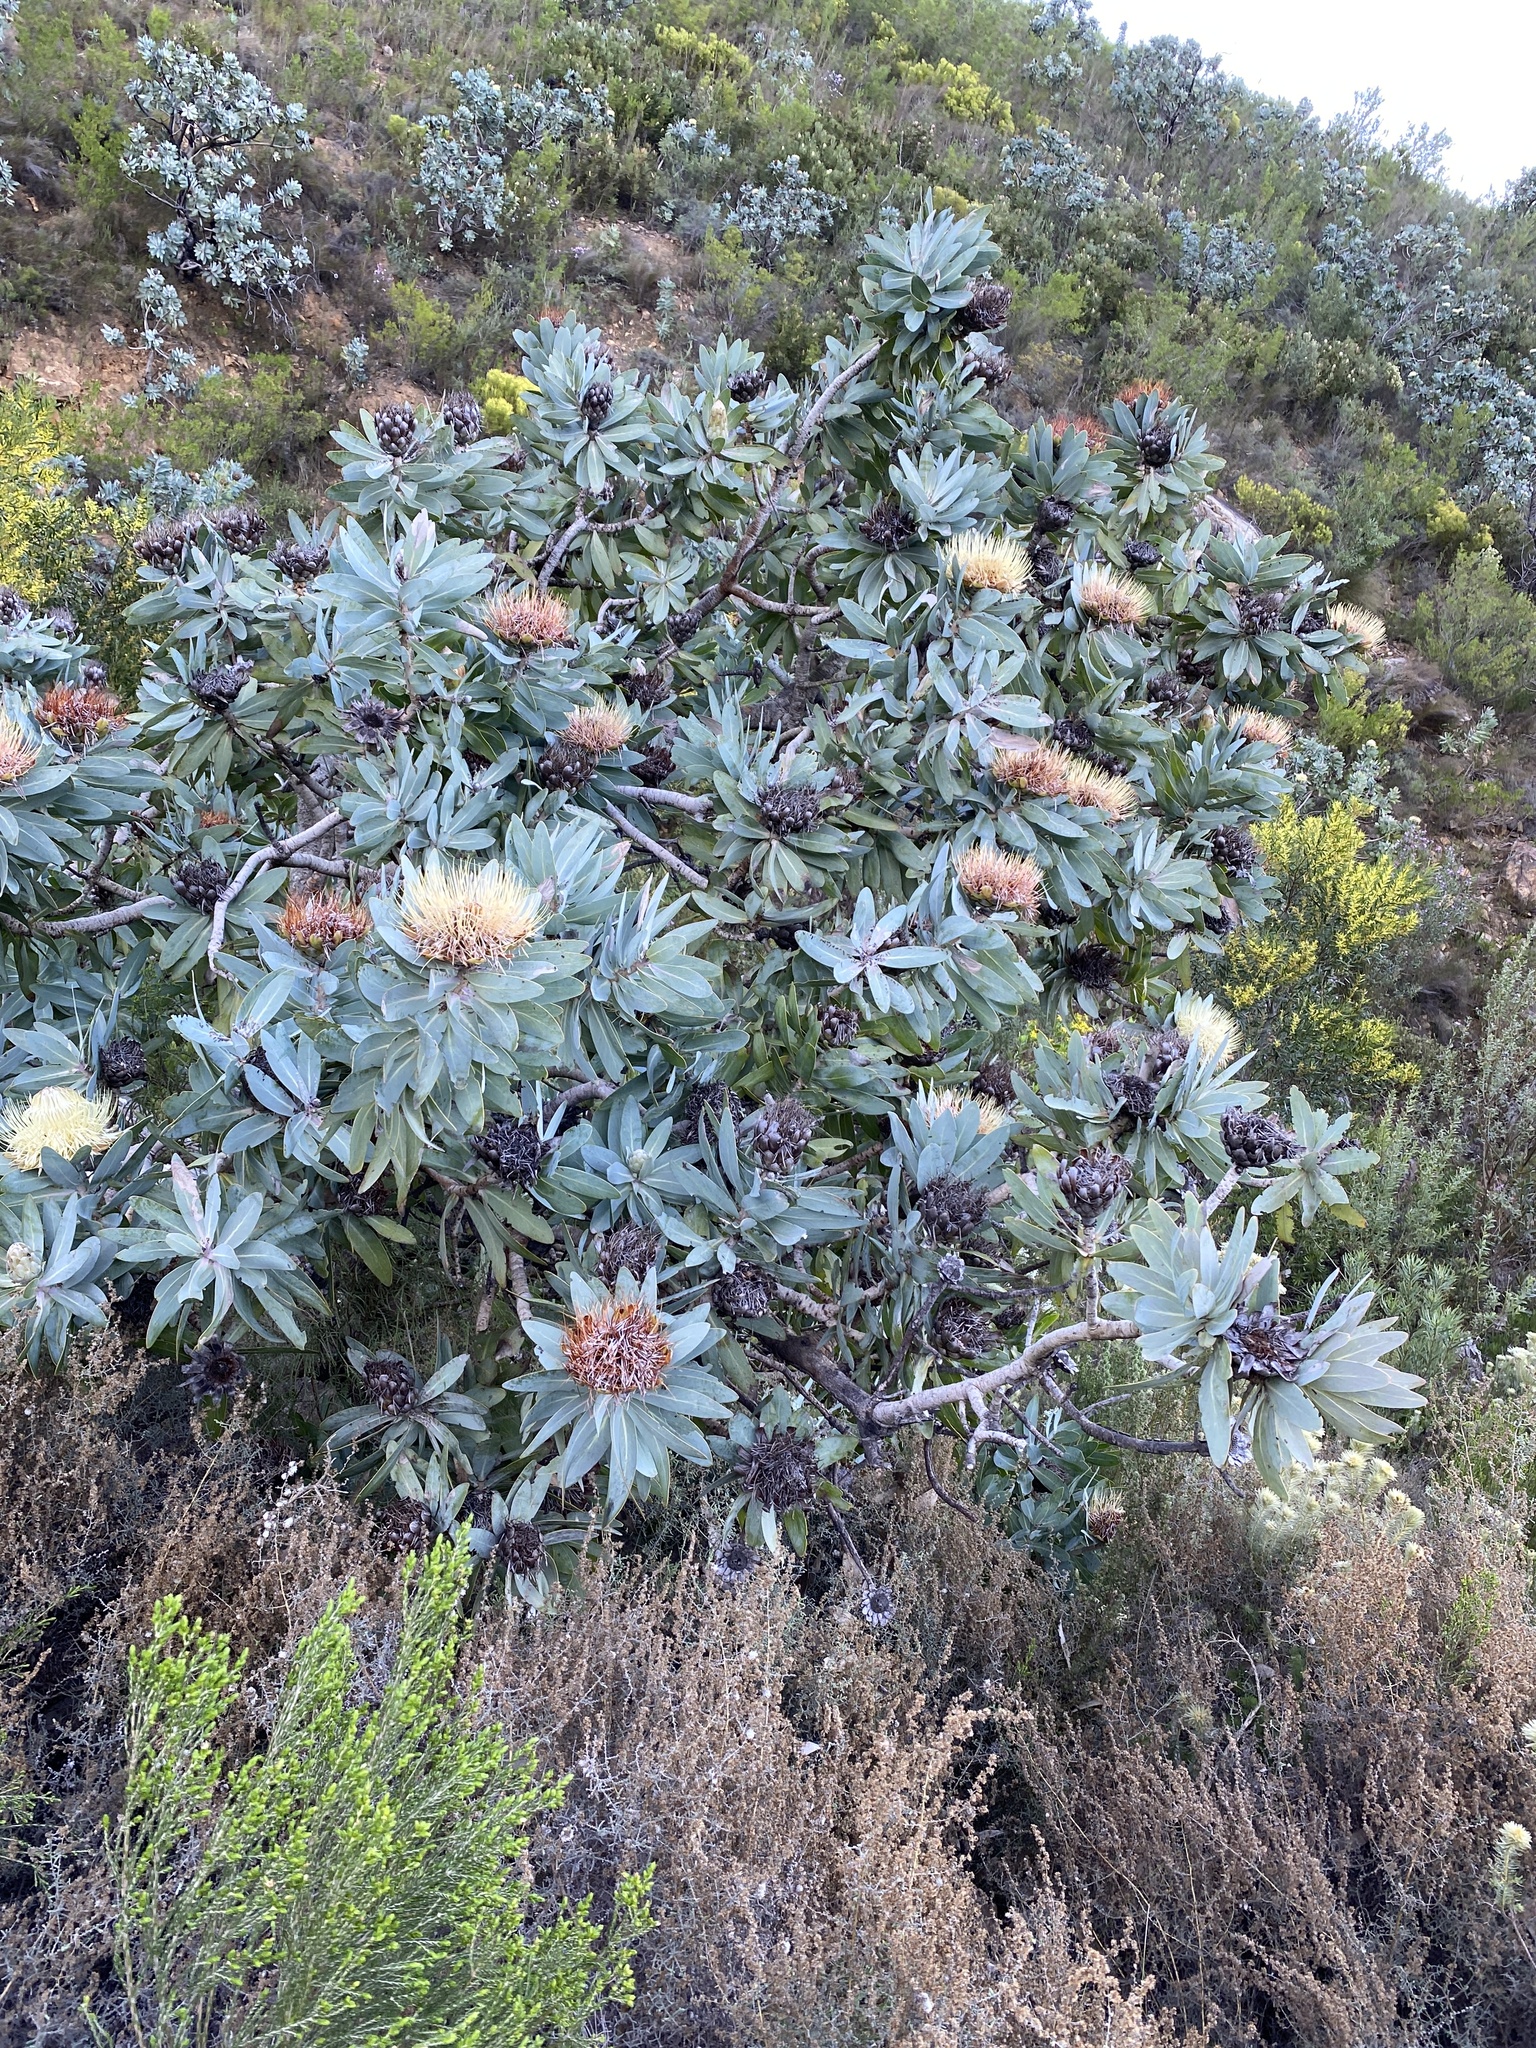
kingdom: Plantae
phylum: Tracheophyta
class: Magnoliopsida
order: Proteales
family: Proteaceae
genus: Protea
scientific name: Protea nitida
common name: Tree protea
